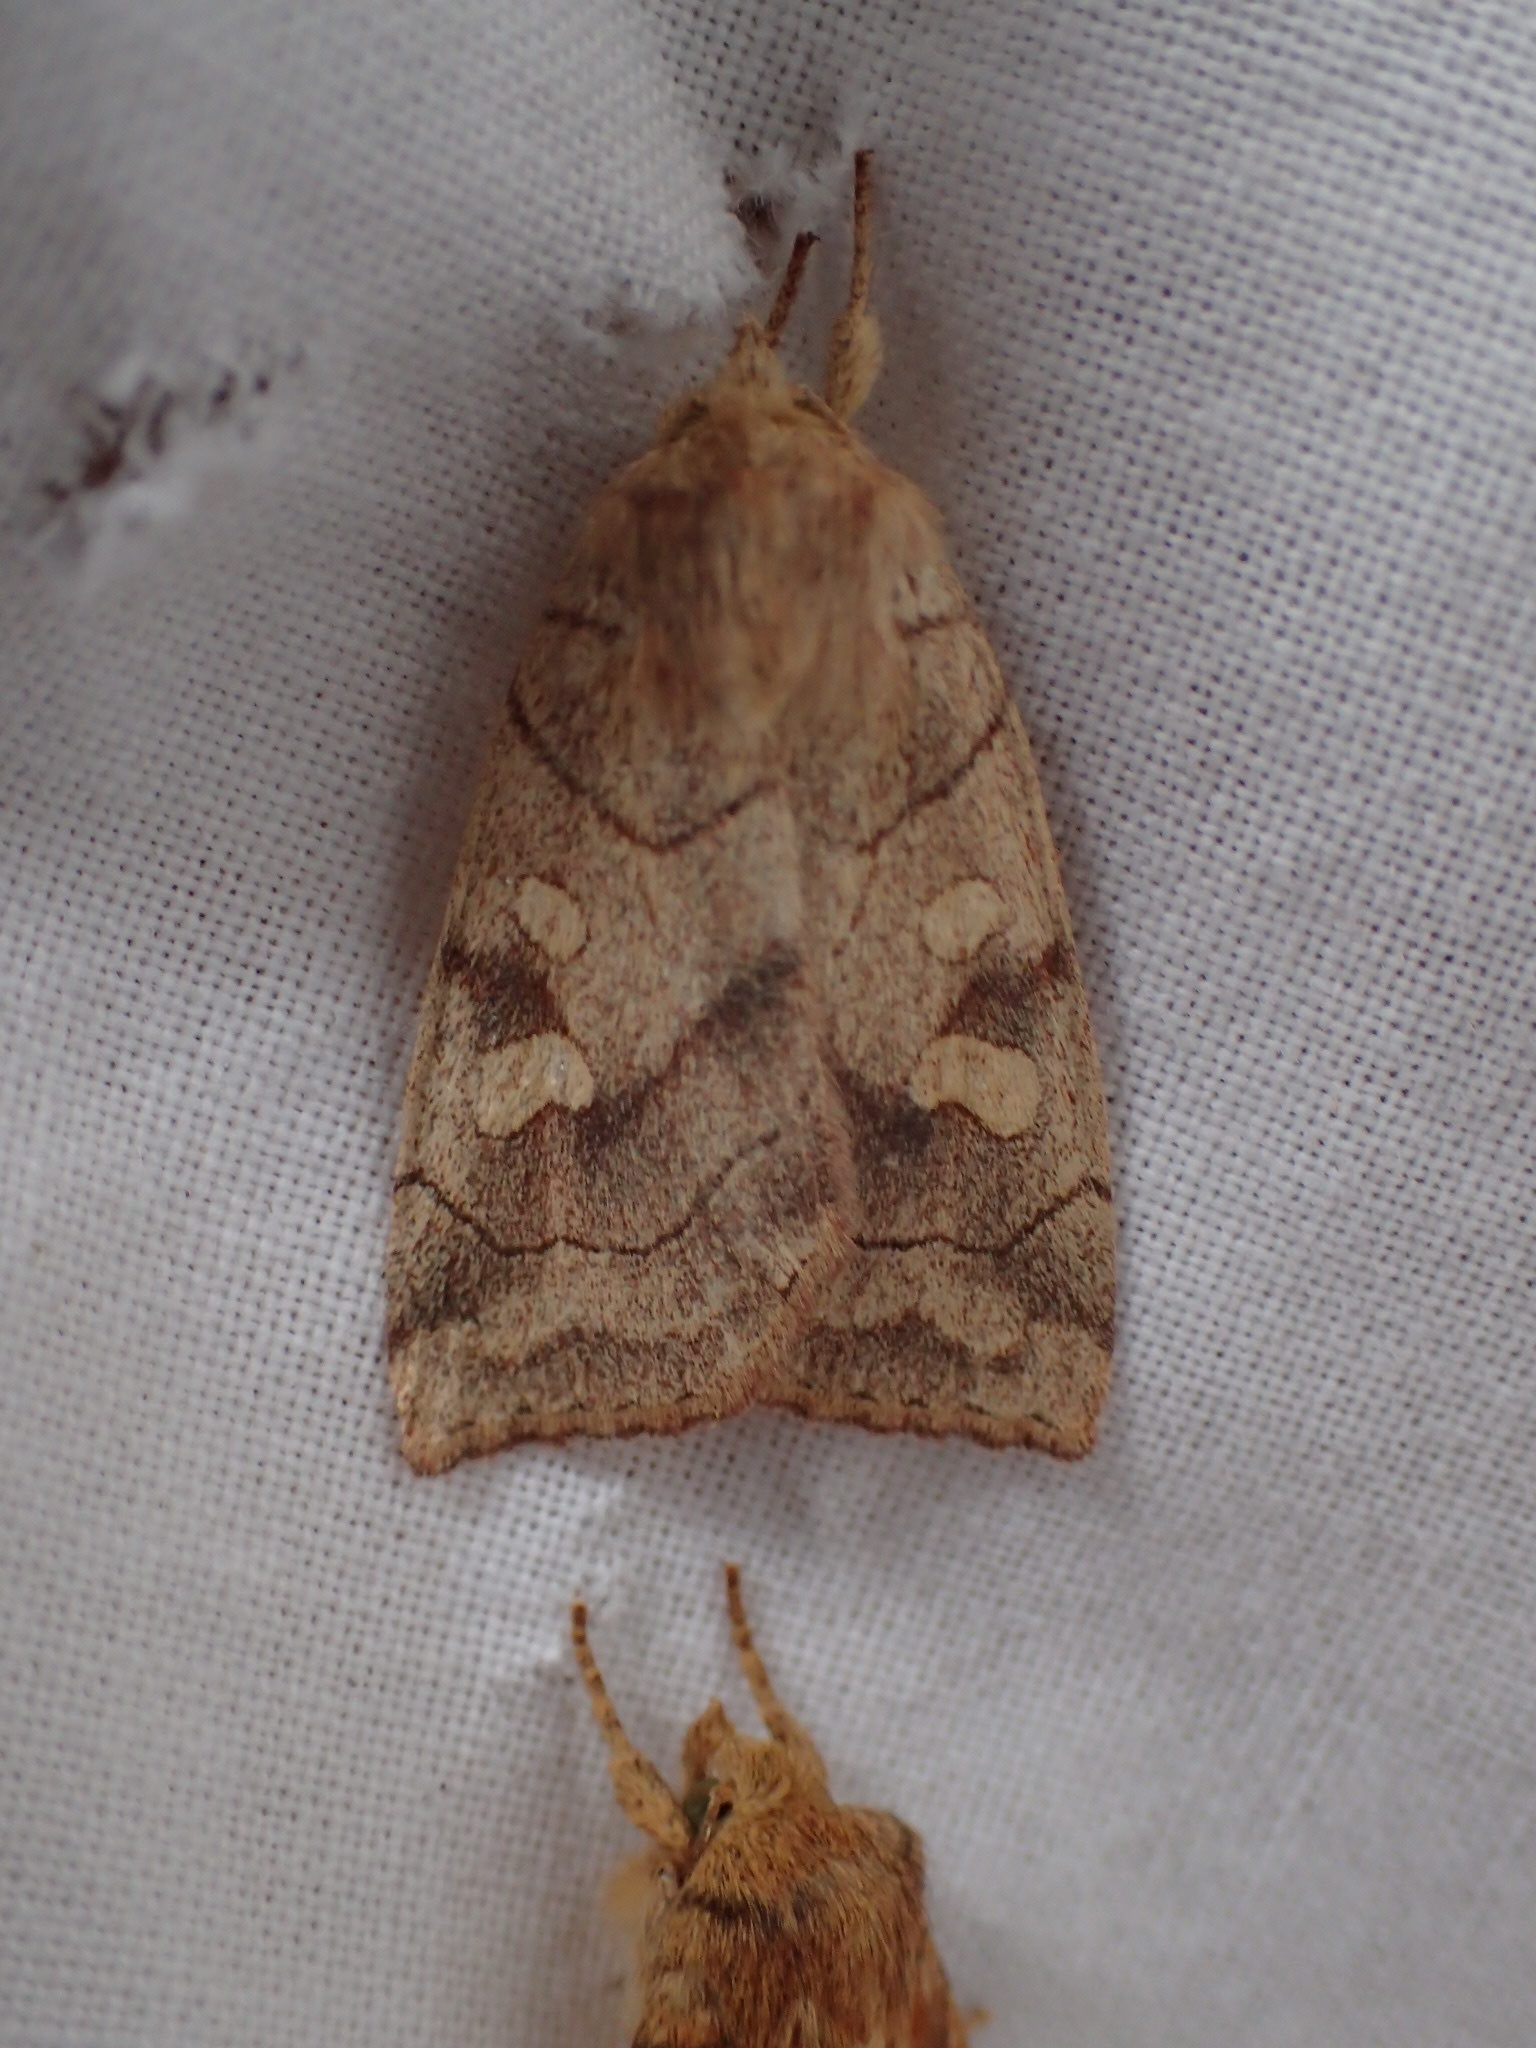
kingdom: Animalia
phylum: Arthropoda
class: Insecta
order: Lepidoptera
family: Noctuidae
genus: Enargia
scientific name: Enargia decolor
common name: Aspen twoleaf tier moth
